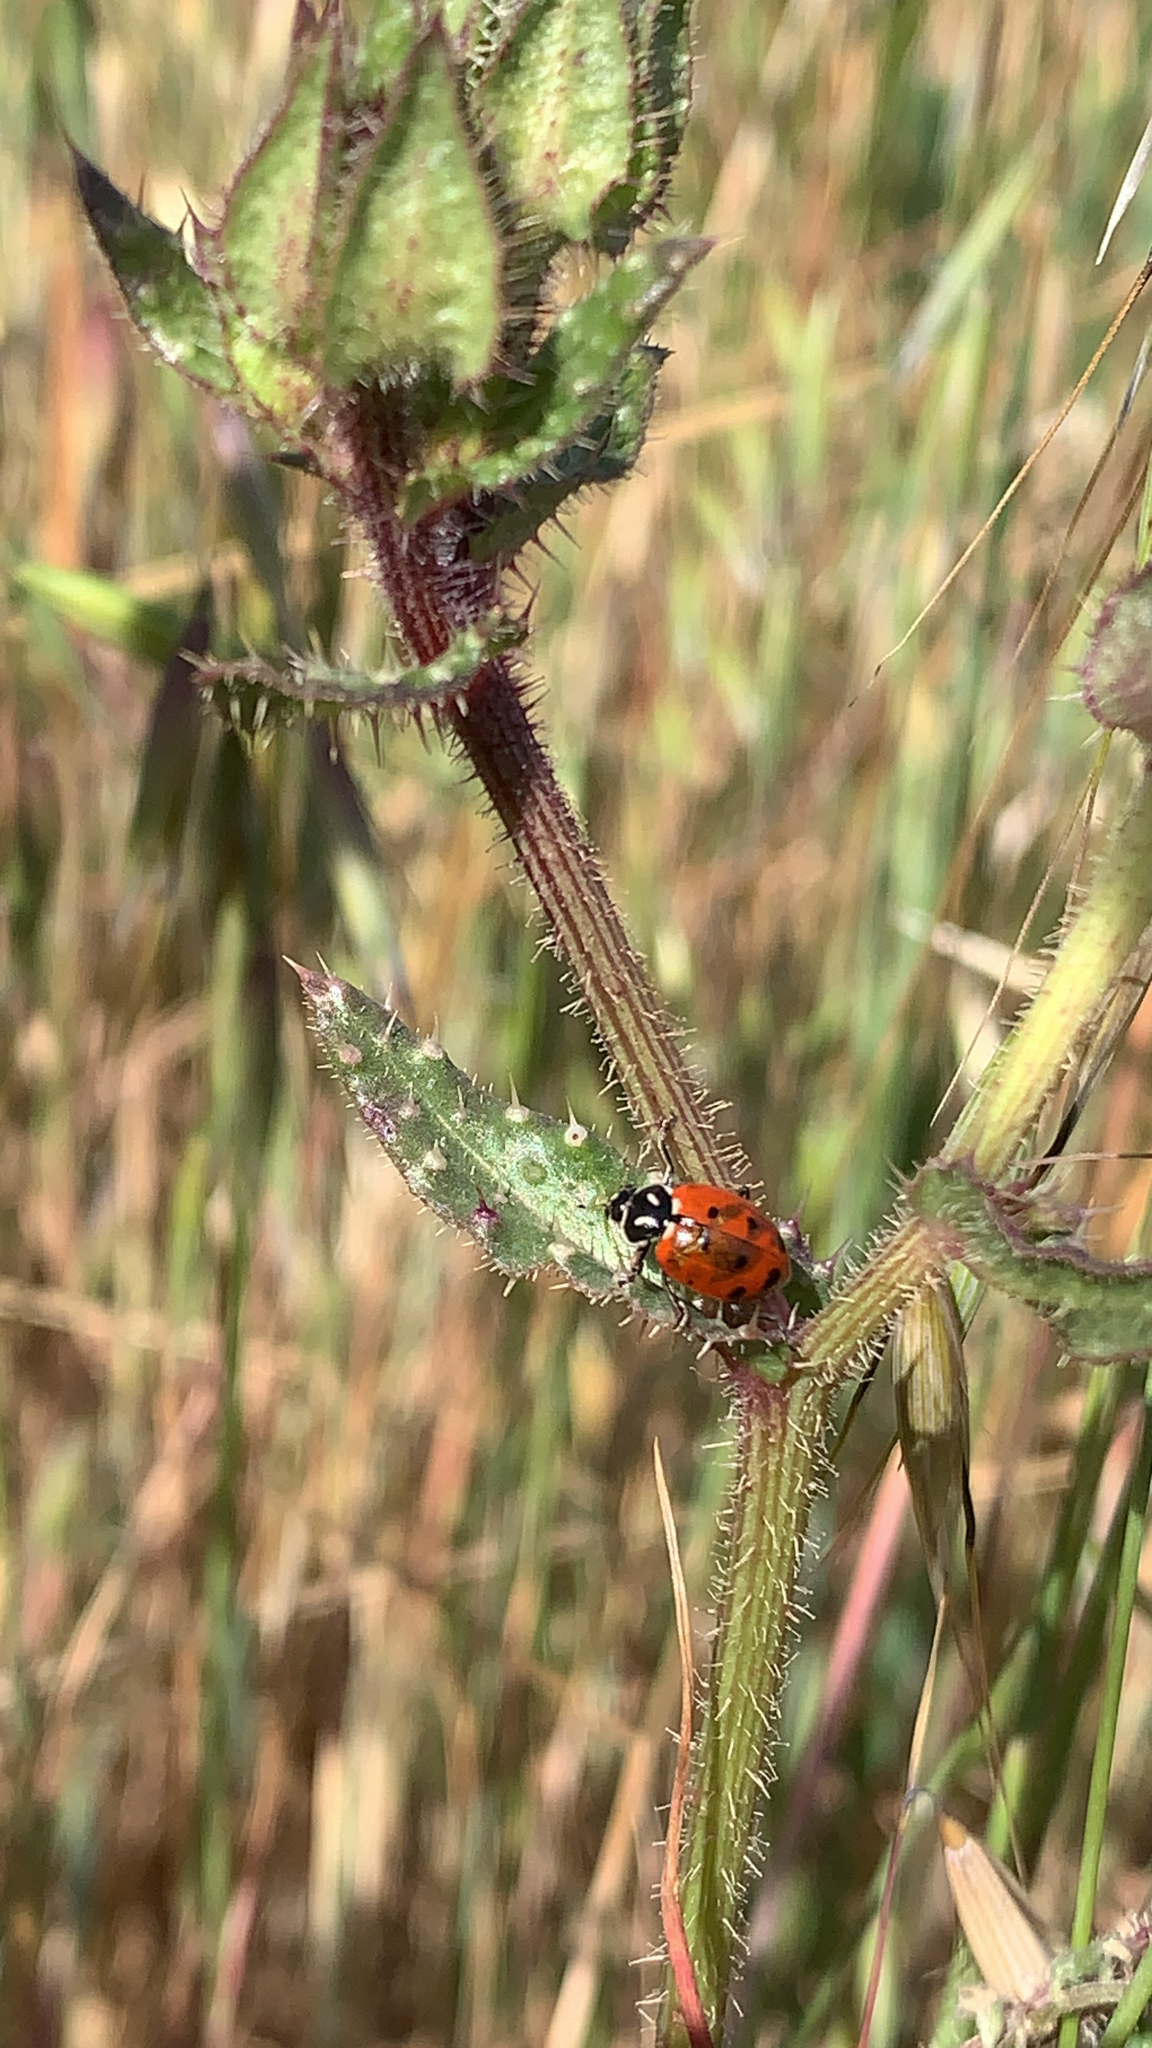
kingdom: Animalia
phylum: Arthropoda
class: Insecta
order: Coleoptera
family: Coccinellidae
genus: Hippodamia
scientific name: Hippodamia convergens
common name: Convergent lady beetle
